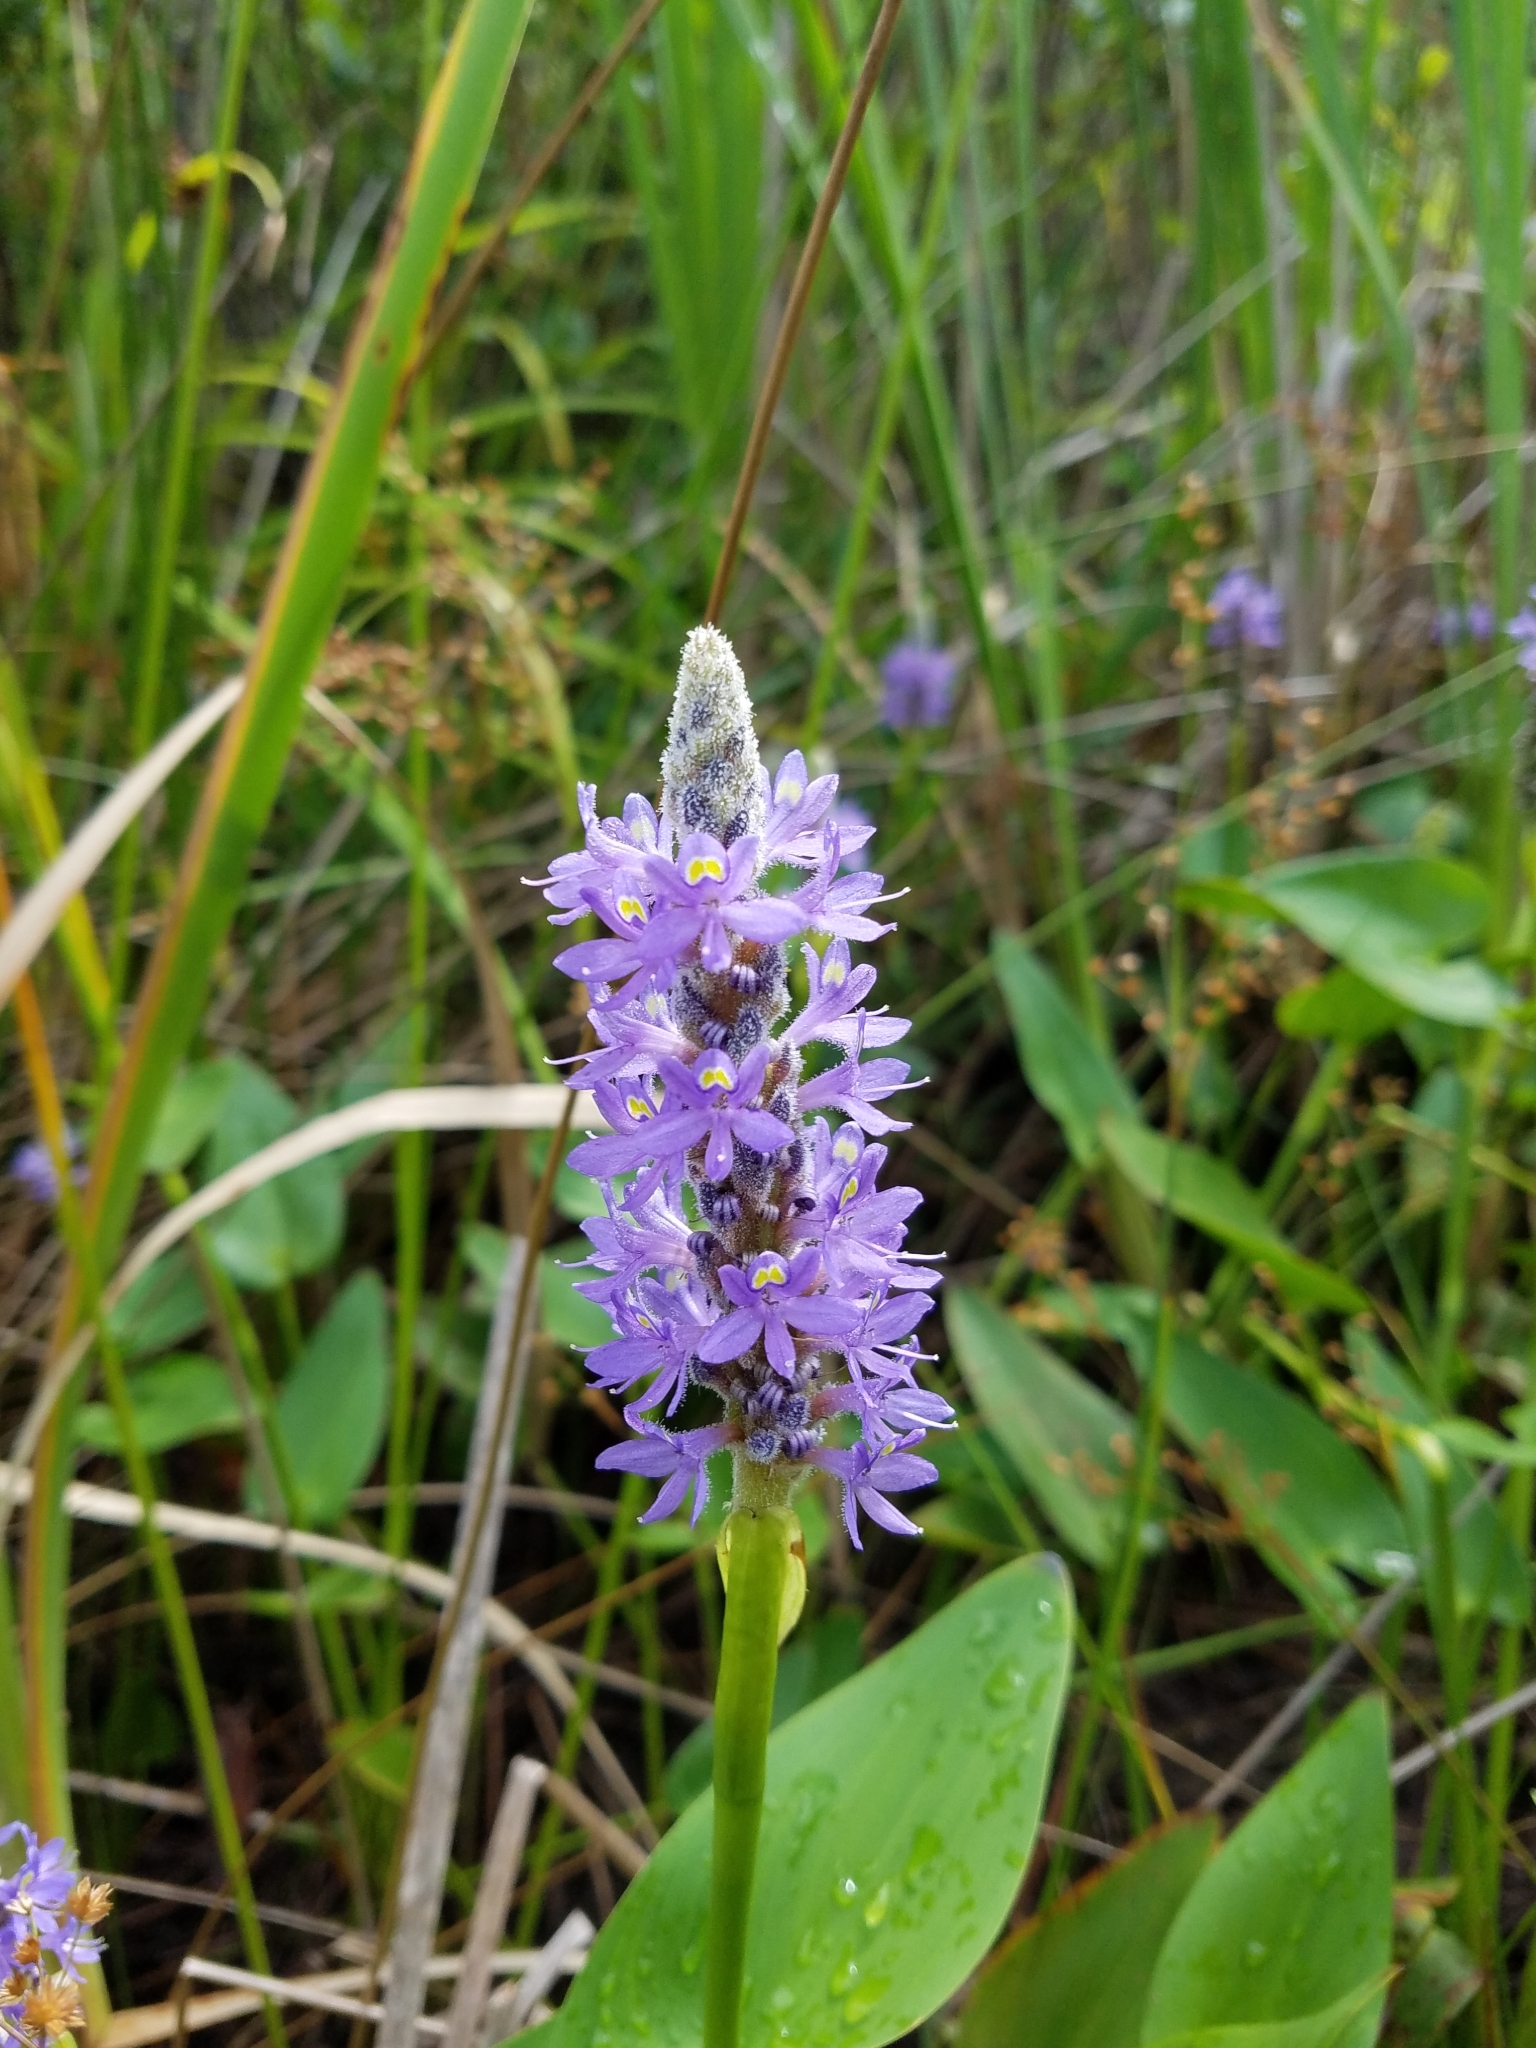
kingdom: Plantae
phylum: Tracheophyta
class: Liliopsida
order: Commelinales
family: Pontederiaceae
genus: Pontederia
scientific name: Pontederia cordata
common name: Pickerelweed
